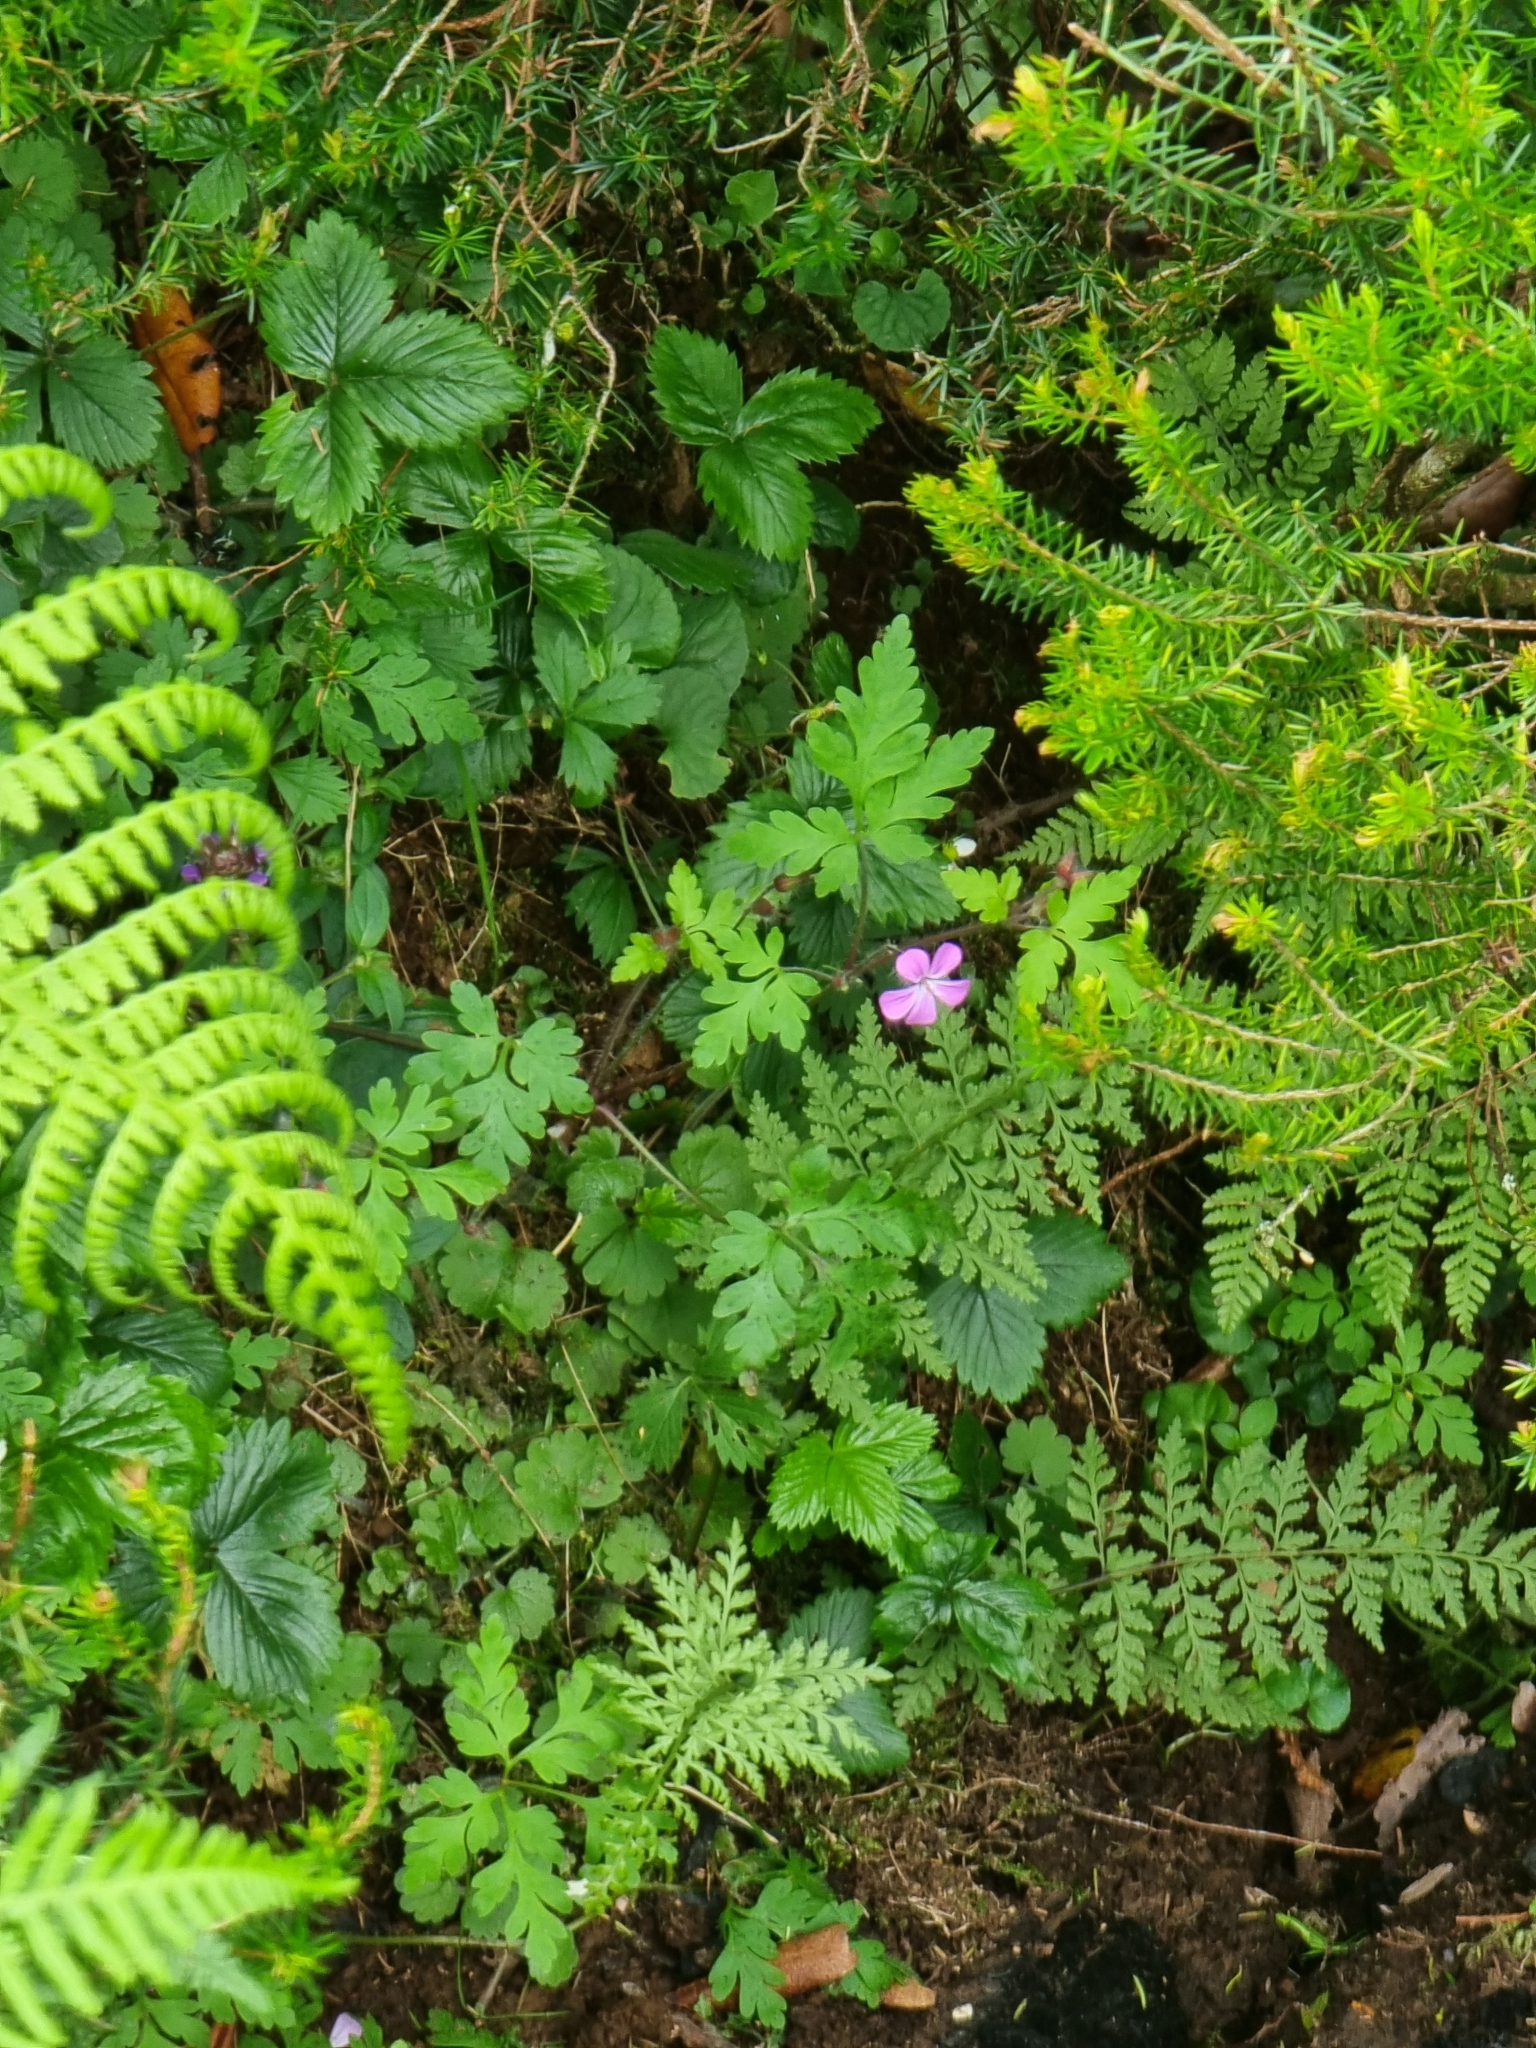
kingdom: Plantae
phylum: Tracheophyta
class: Magnoliopsida
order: Geraniales
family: Geraniaceae
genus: Geranium
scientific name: Geranium robertianum
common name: Herb-robert
